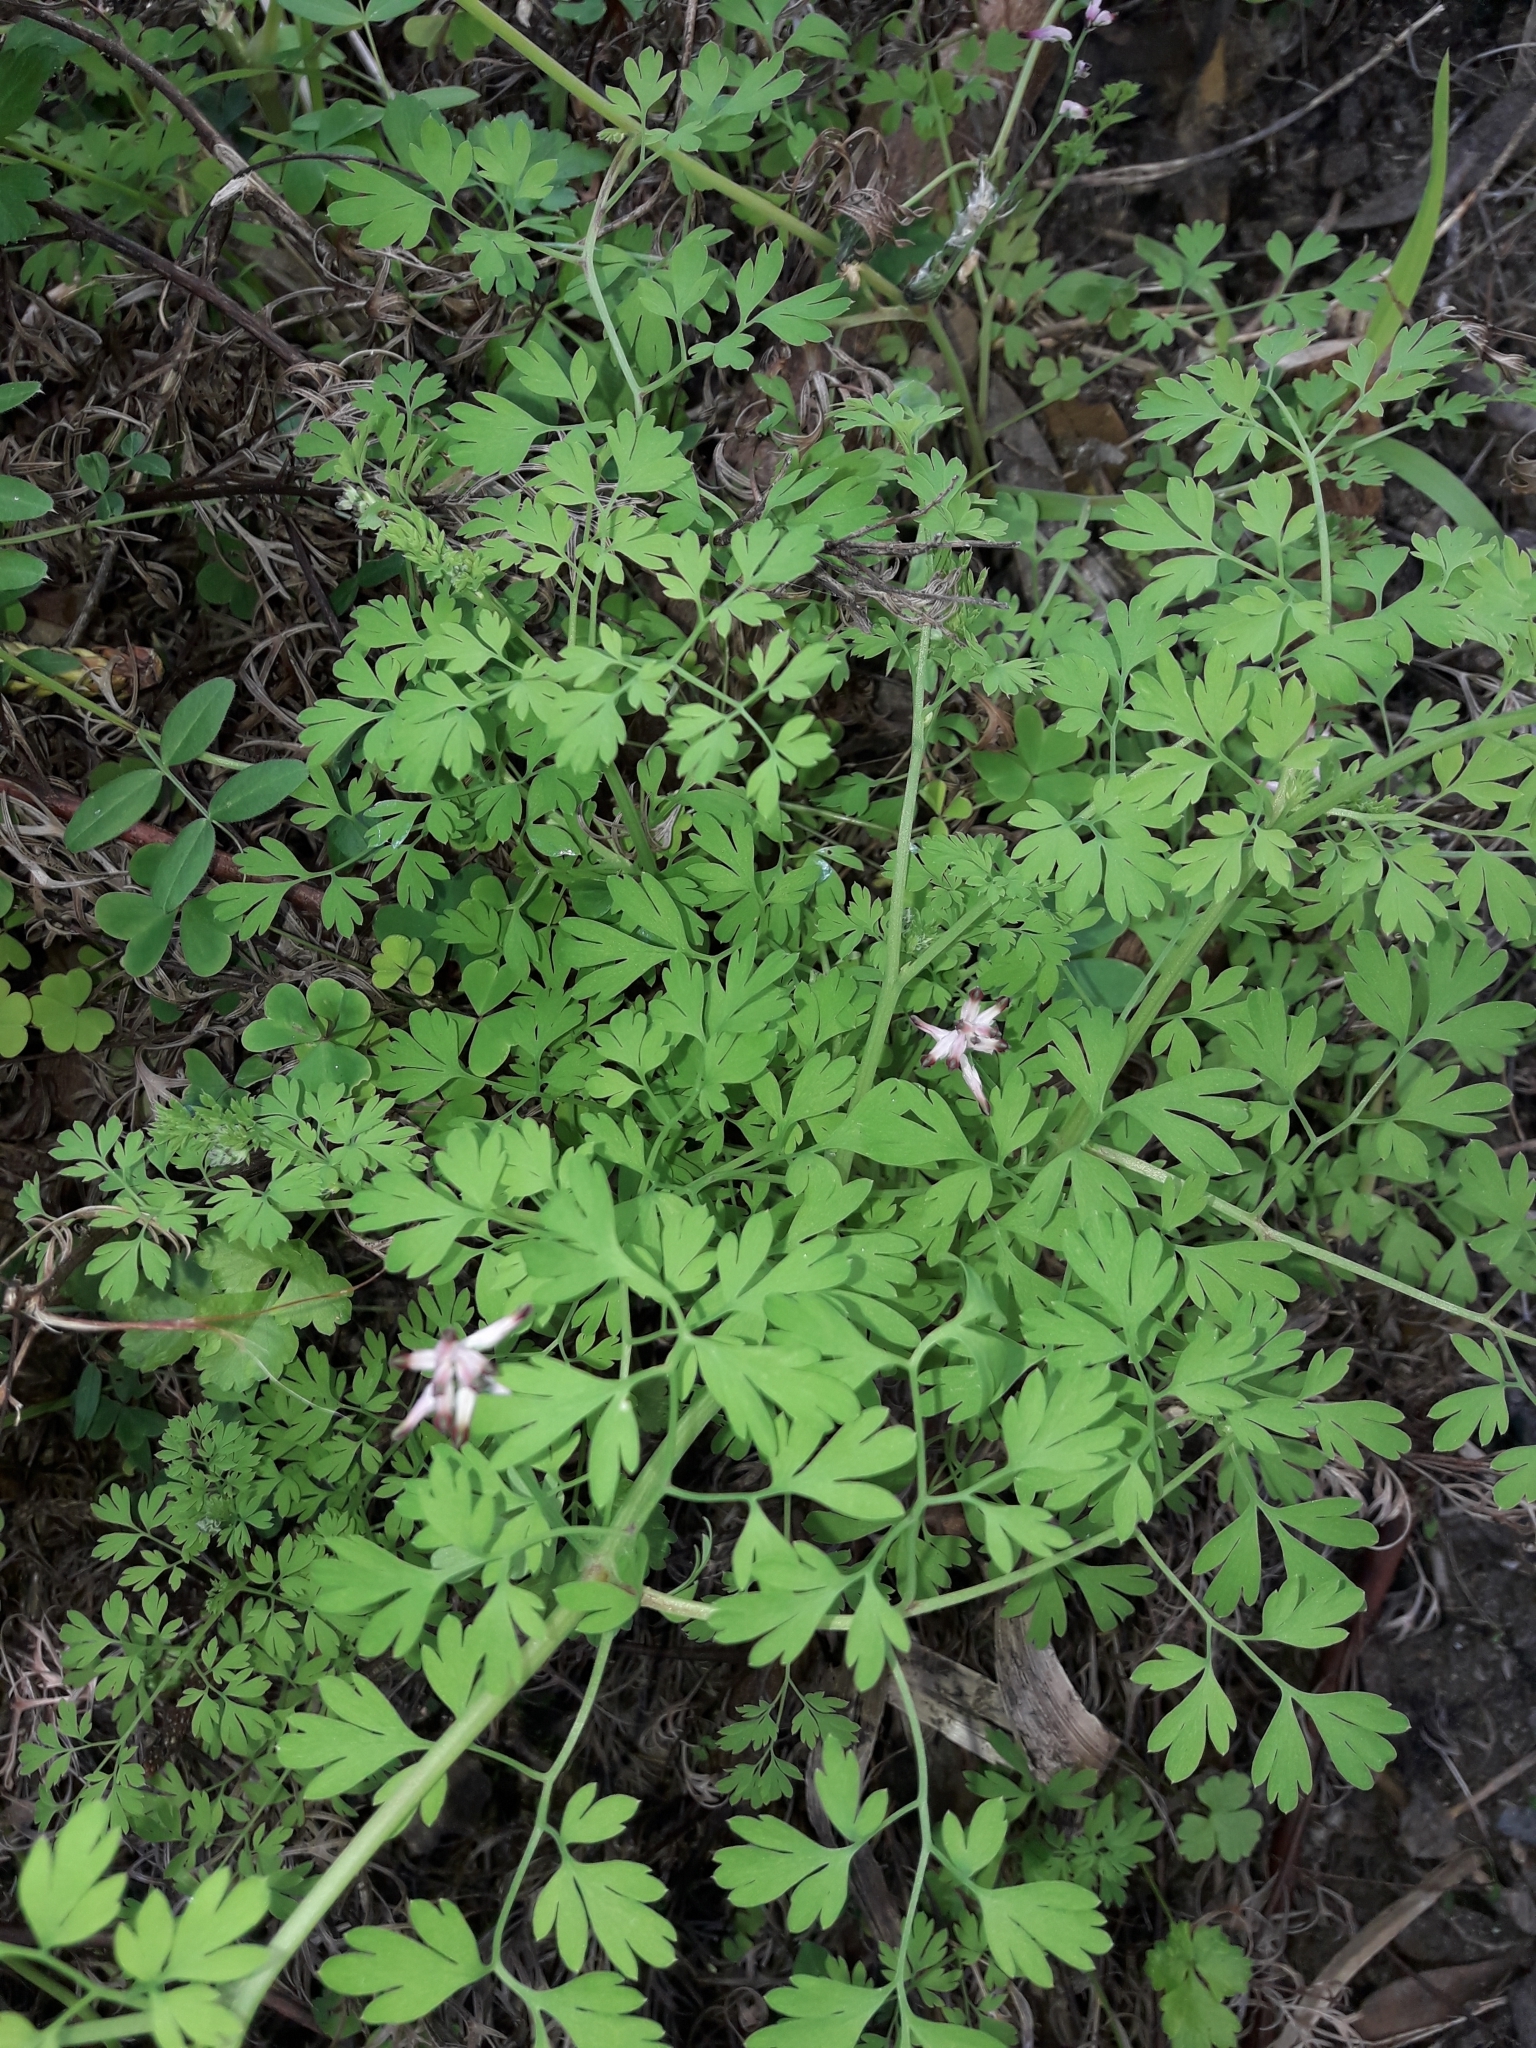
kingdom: Plantae
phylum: Tracheophyta
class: Magnoliopsida
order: Ranunculales
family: Papaveraceae
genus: Fumaria
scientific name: Fumaria muralis
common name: Common ramping-fumitory
